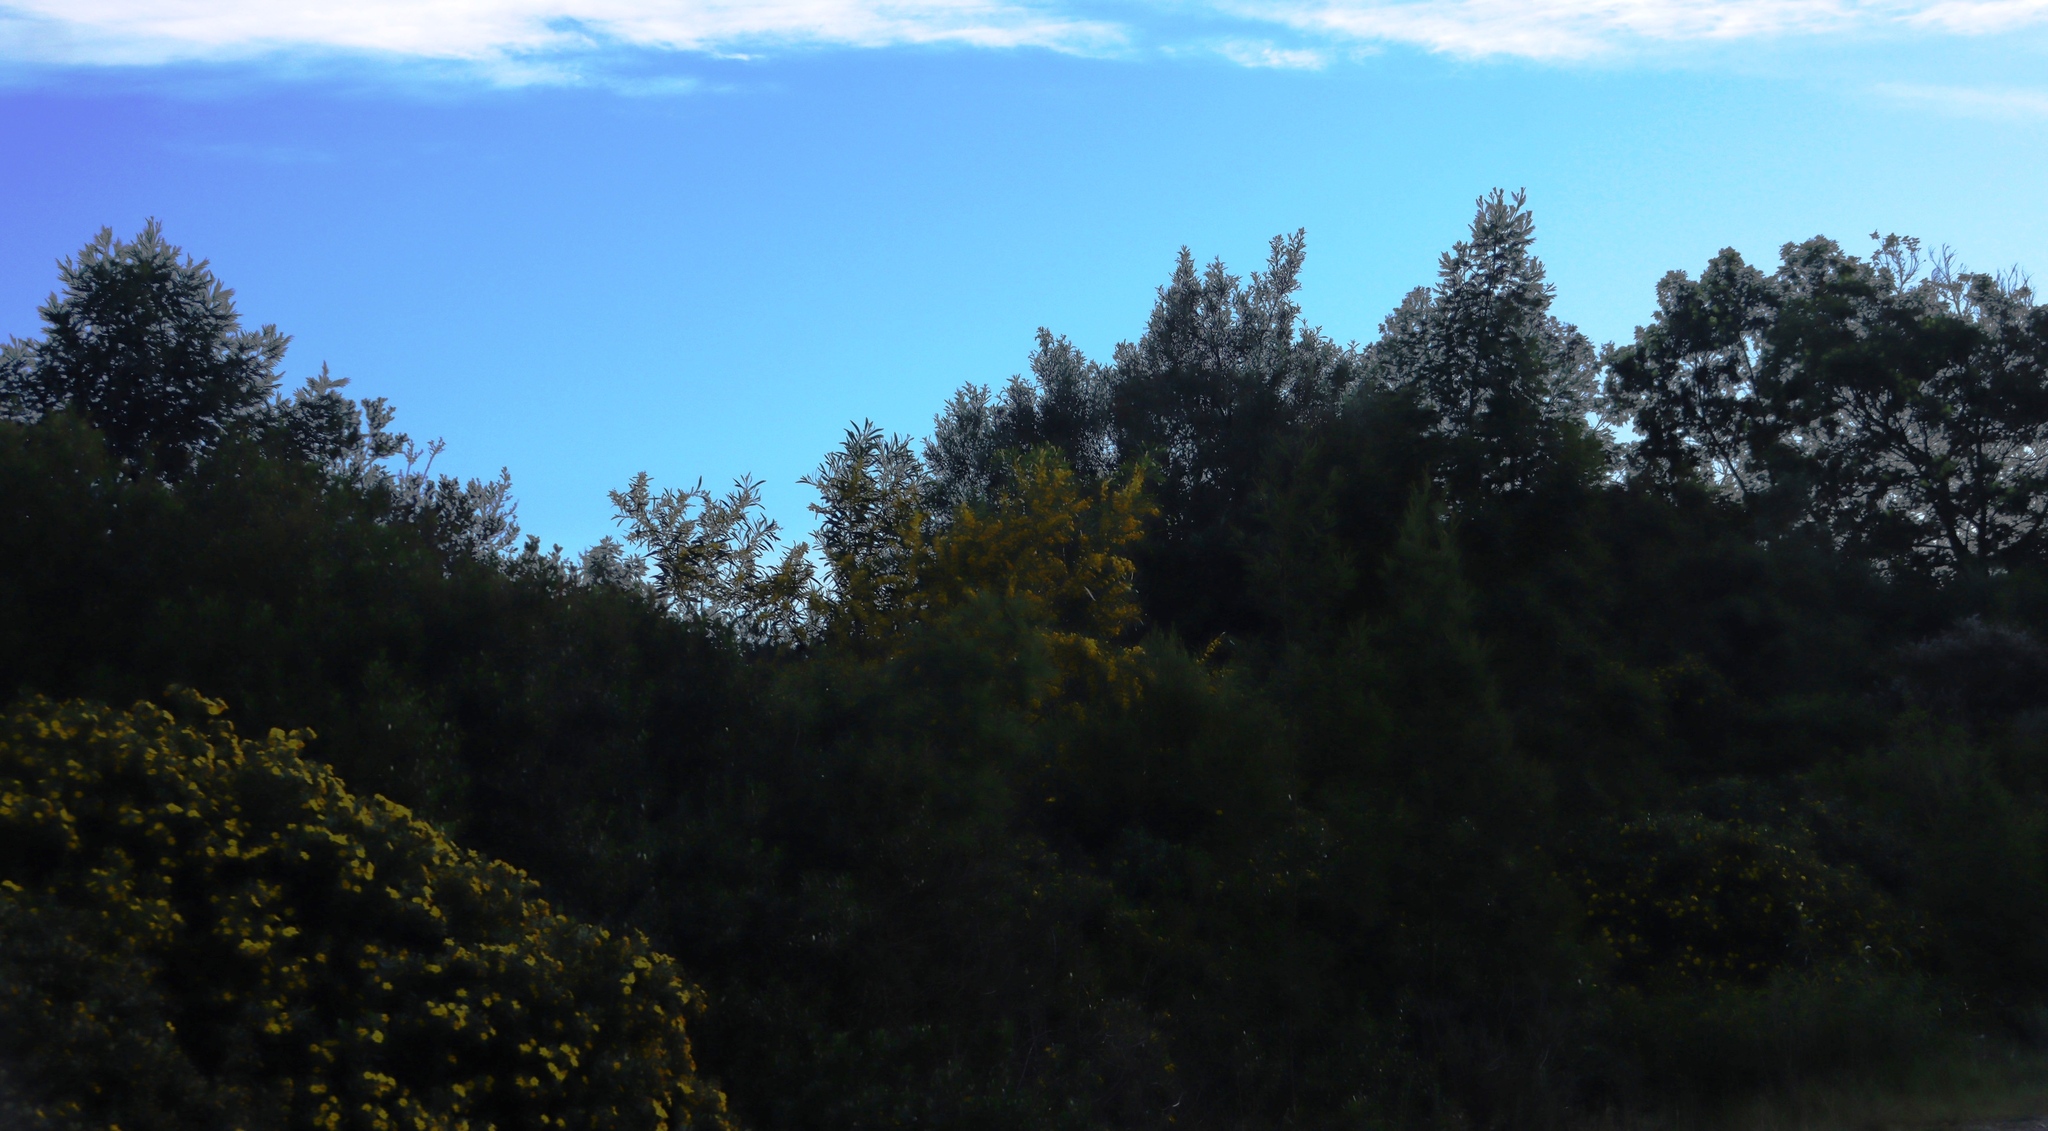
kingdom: Plantae
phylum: Tracheophyta
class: Magnoliopsida
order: Fabales
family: Fabaceae
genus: Acacia
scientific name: Acacia saligna
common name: Orange wattle
